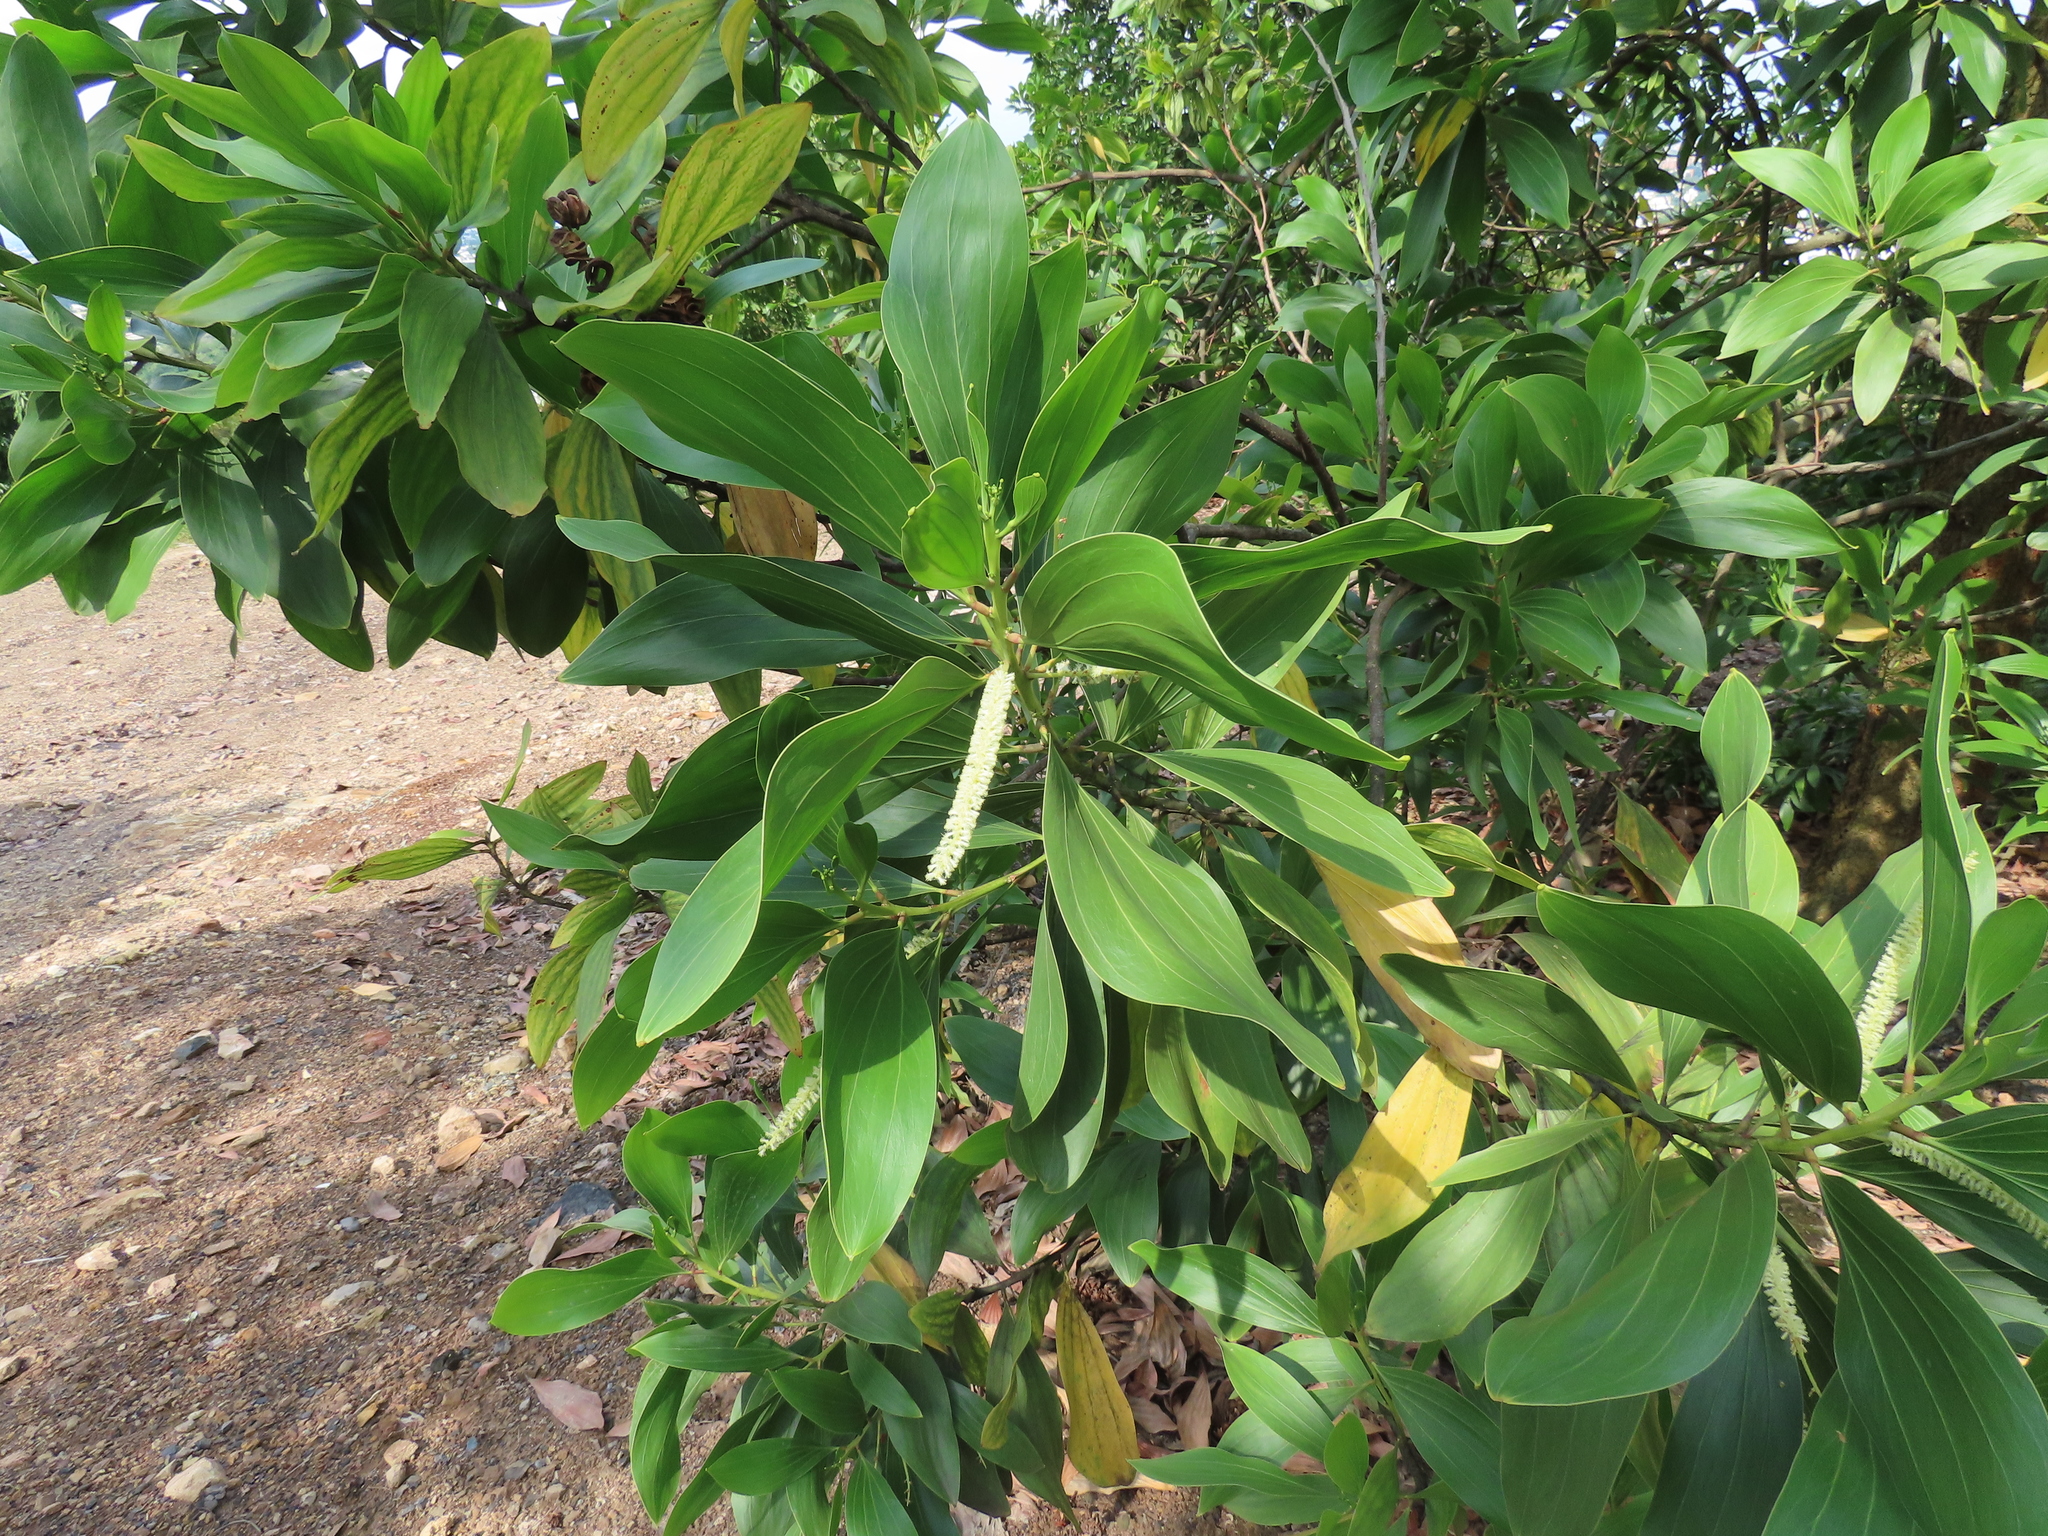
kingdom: Plantae
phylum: Tracheophyta
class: Magnoliopsida
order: Fabales
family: Fabaceae
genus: Acacia
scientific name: Acacia mangium
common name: Black wattle
